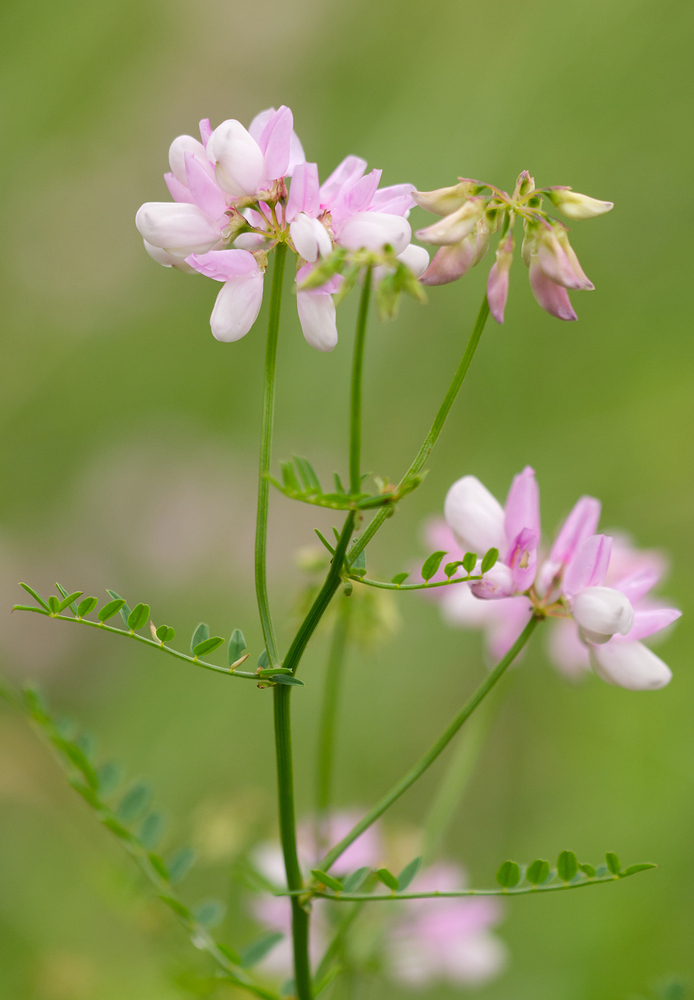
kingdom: Plantae
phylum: Tracheophyta
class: Magnoliopsida
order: Fabales
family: Fabaceae
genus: Coronilla
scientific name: Coronilla varia
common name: Crownvetch
